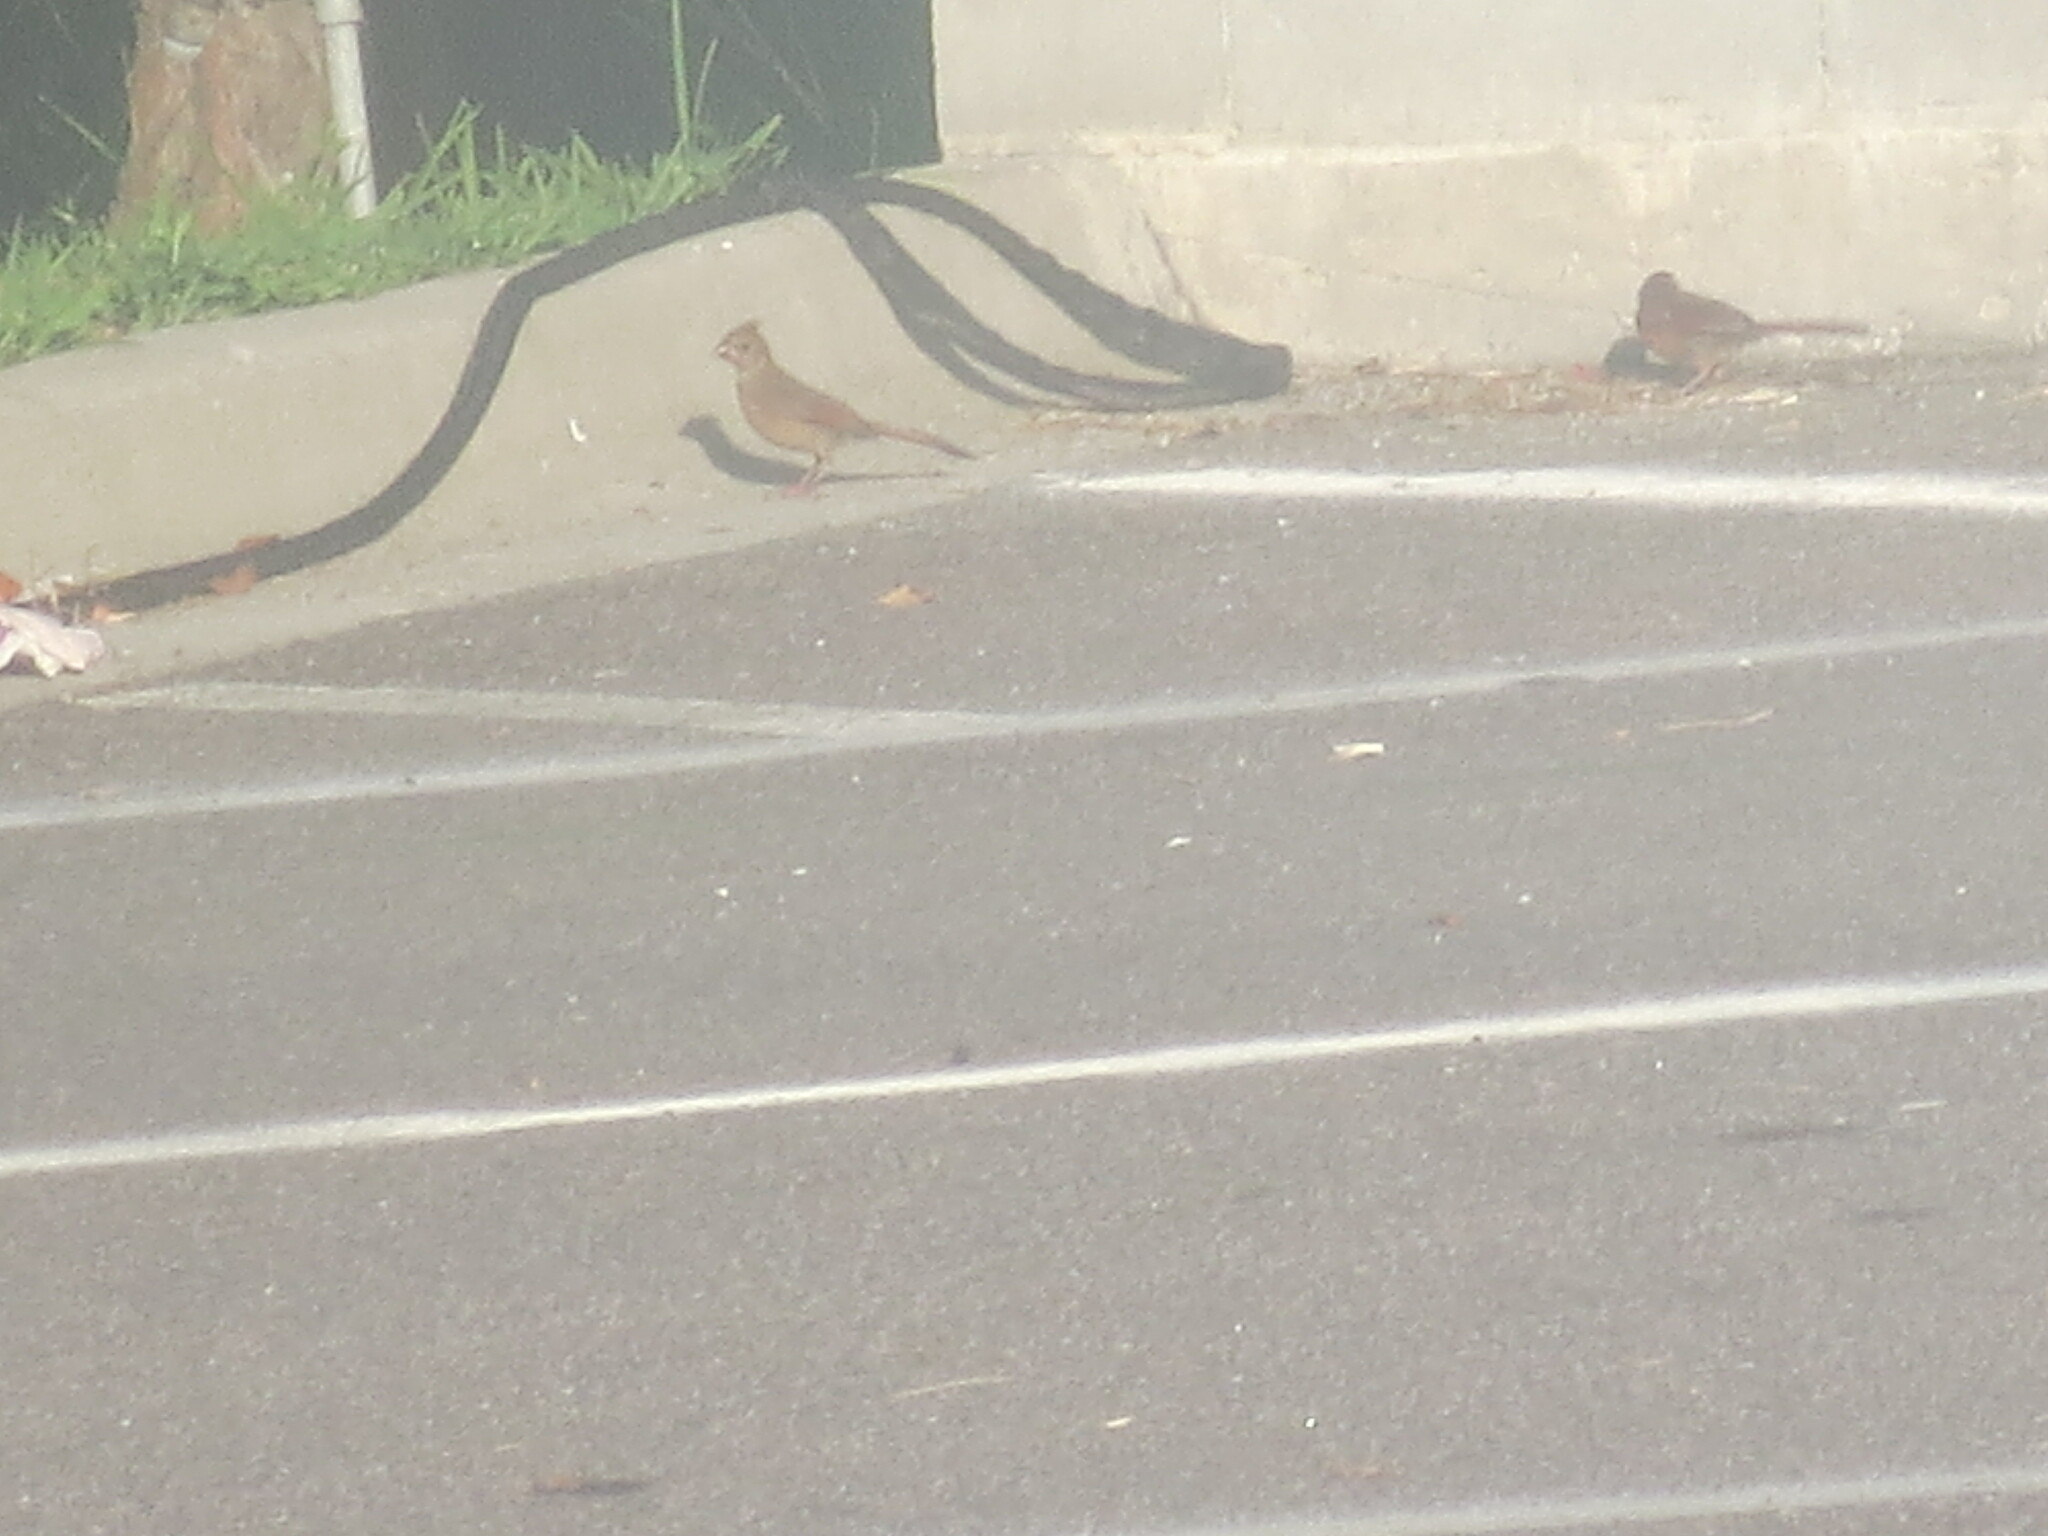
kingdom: Animalia
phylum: Chordata
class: Aves
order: Passeriformes
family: Cardinalidae
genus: Cardinalis
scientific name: Cardinalis cardinalis
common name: Northern cardinal
